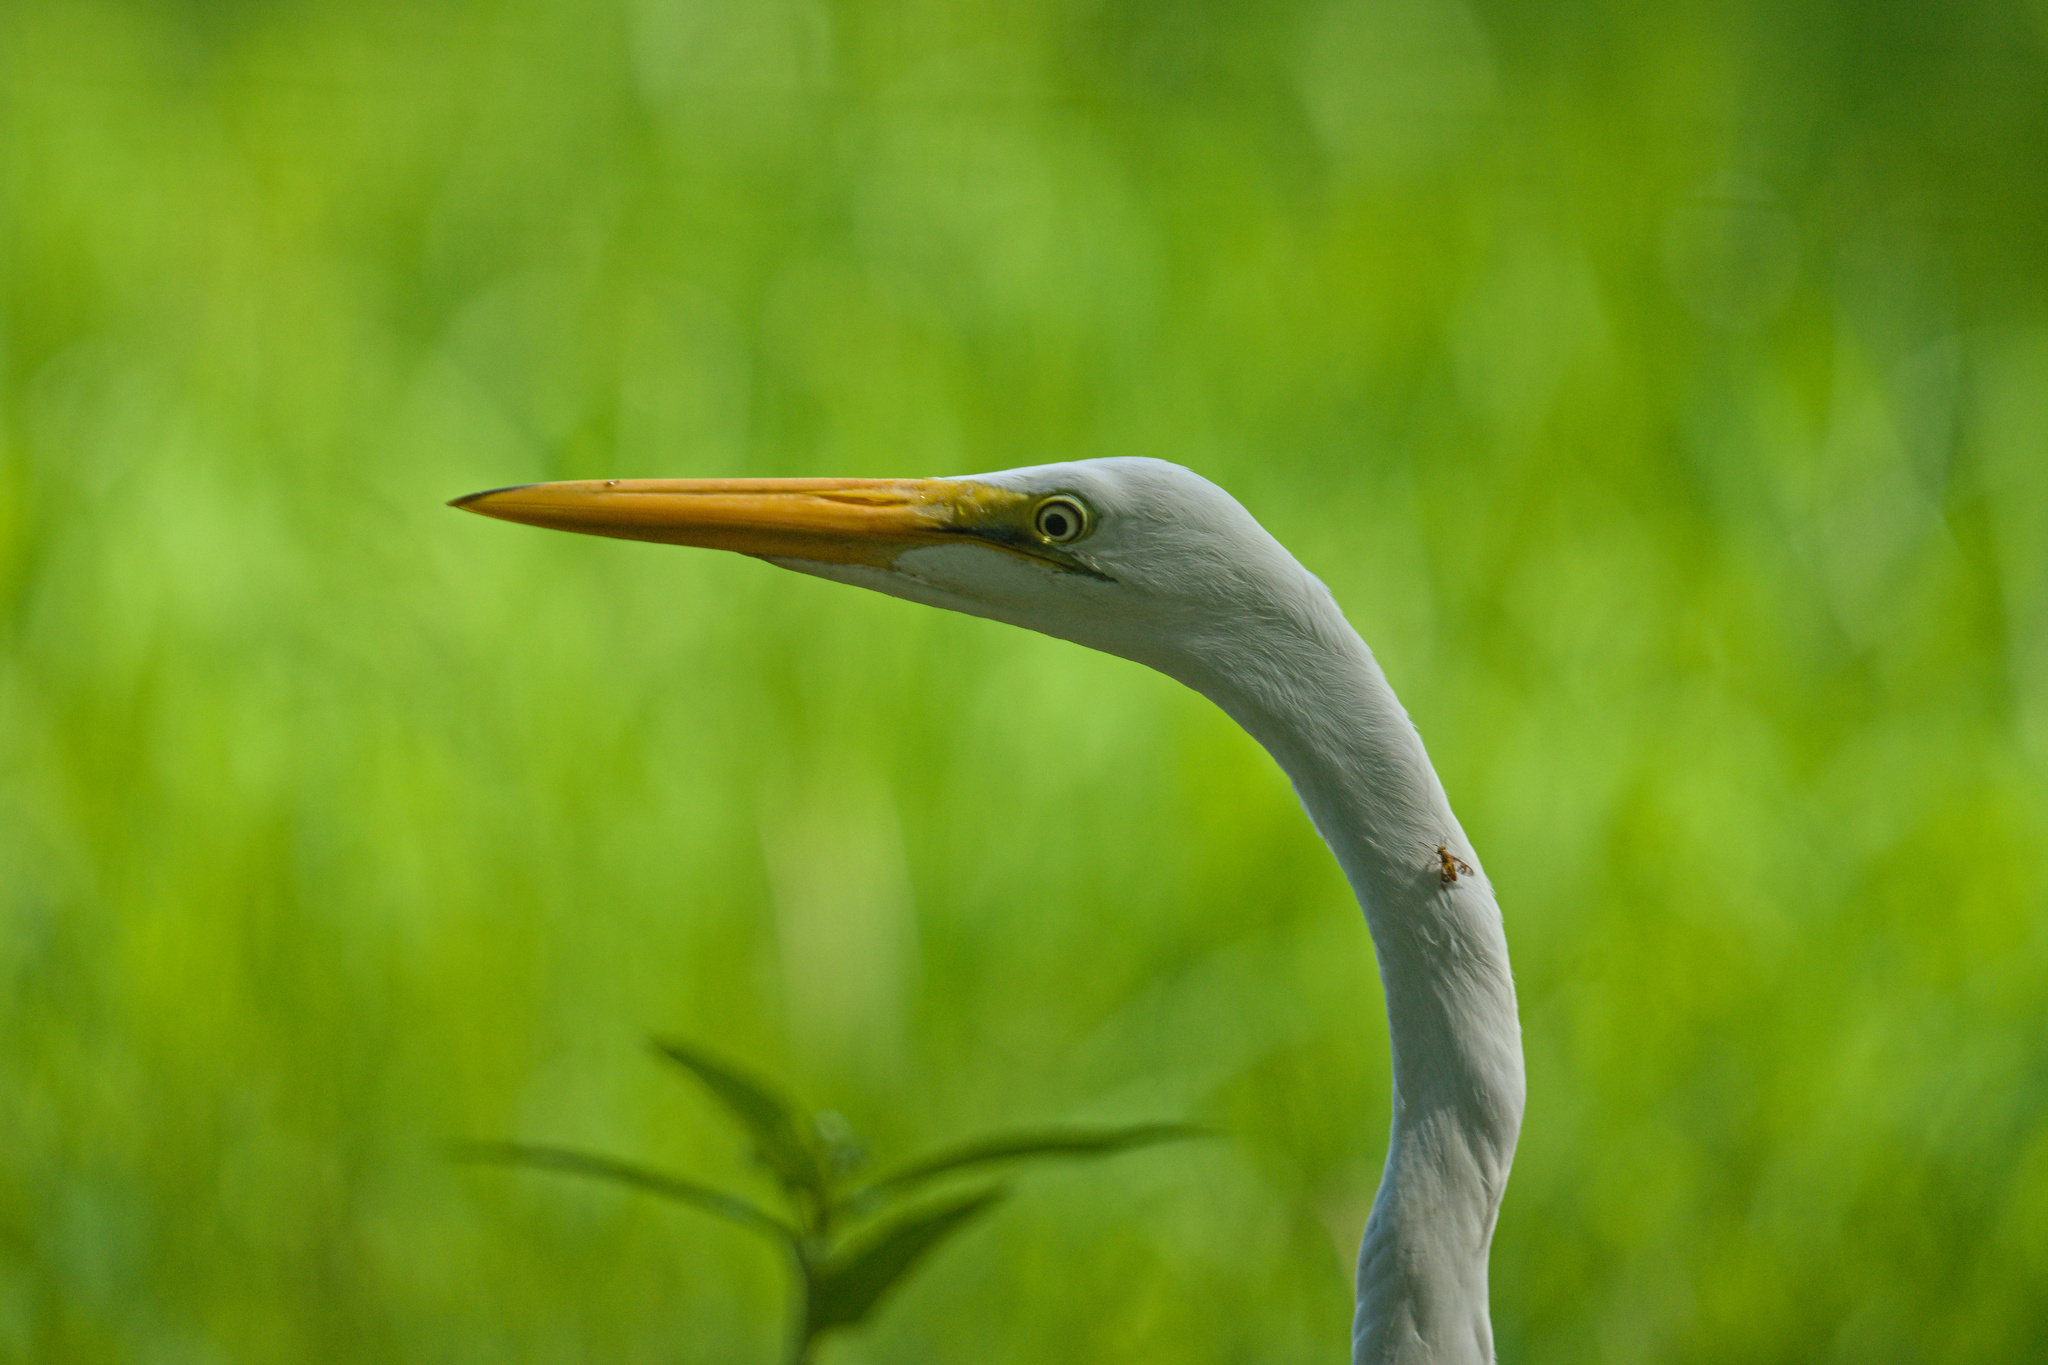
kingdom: Animalia
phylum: Chordata
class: Aves
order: Pelecaniformes
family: Ardeidae
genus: Ardea
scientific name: Ardea alba
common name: Great egret
